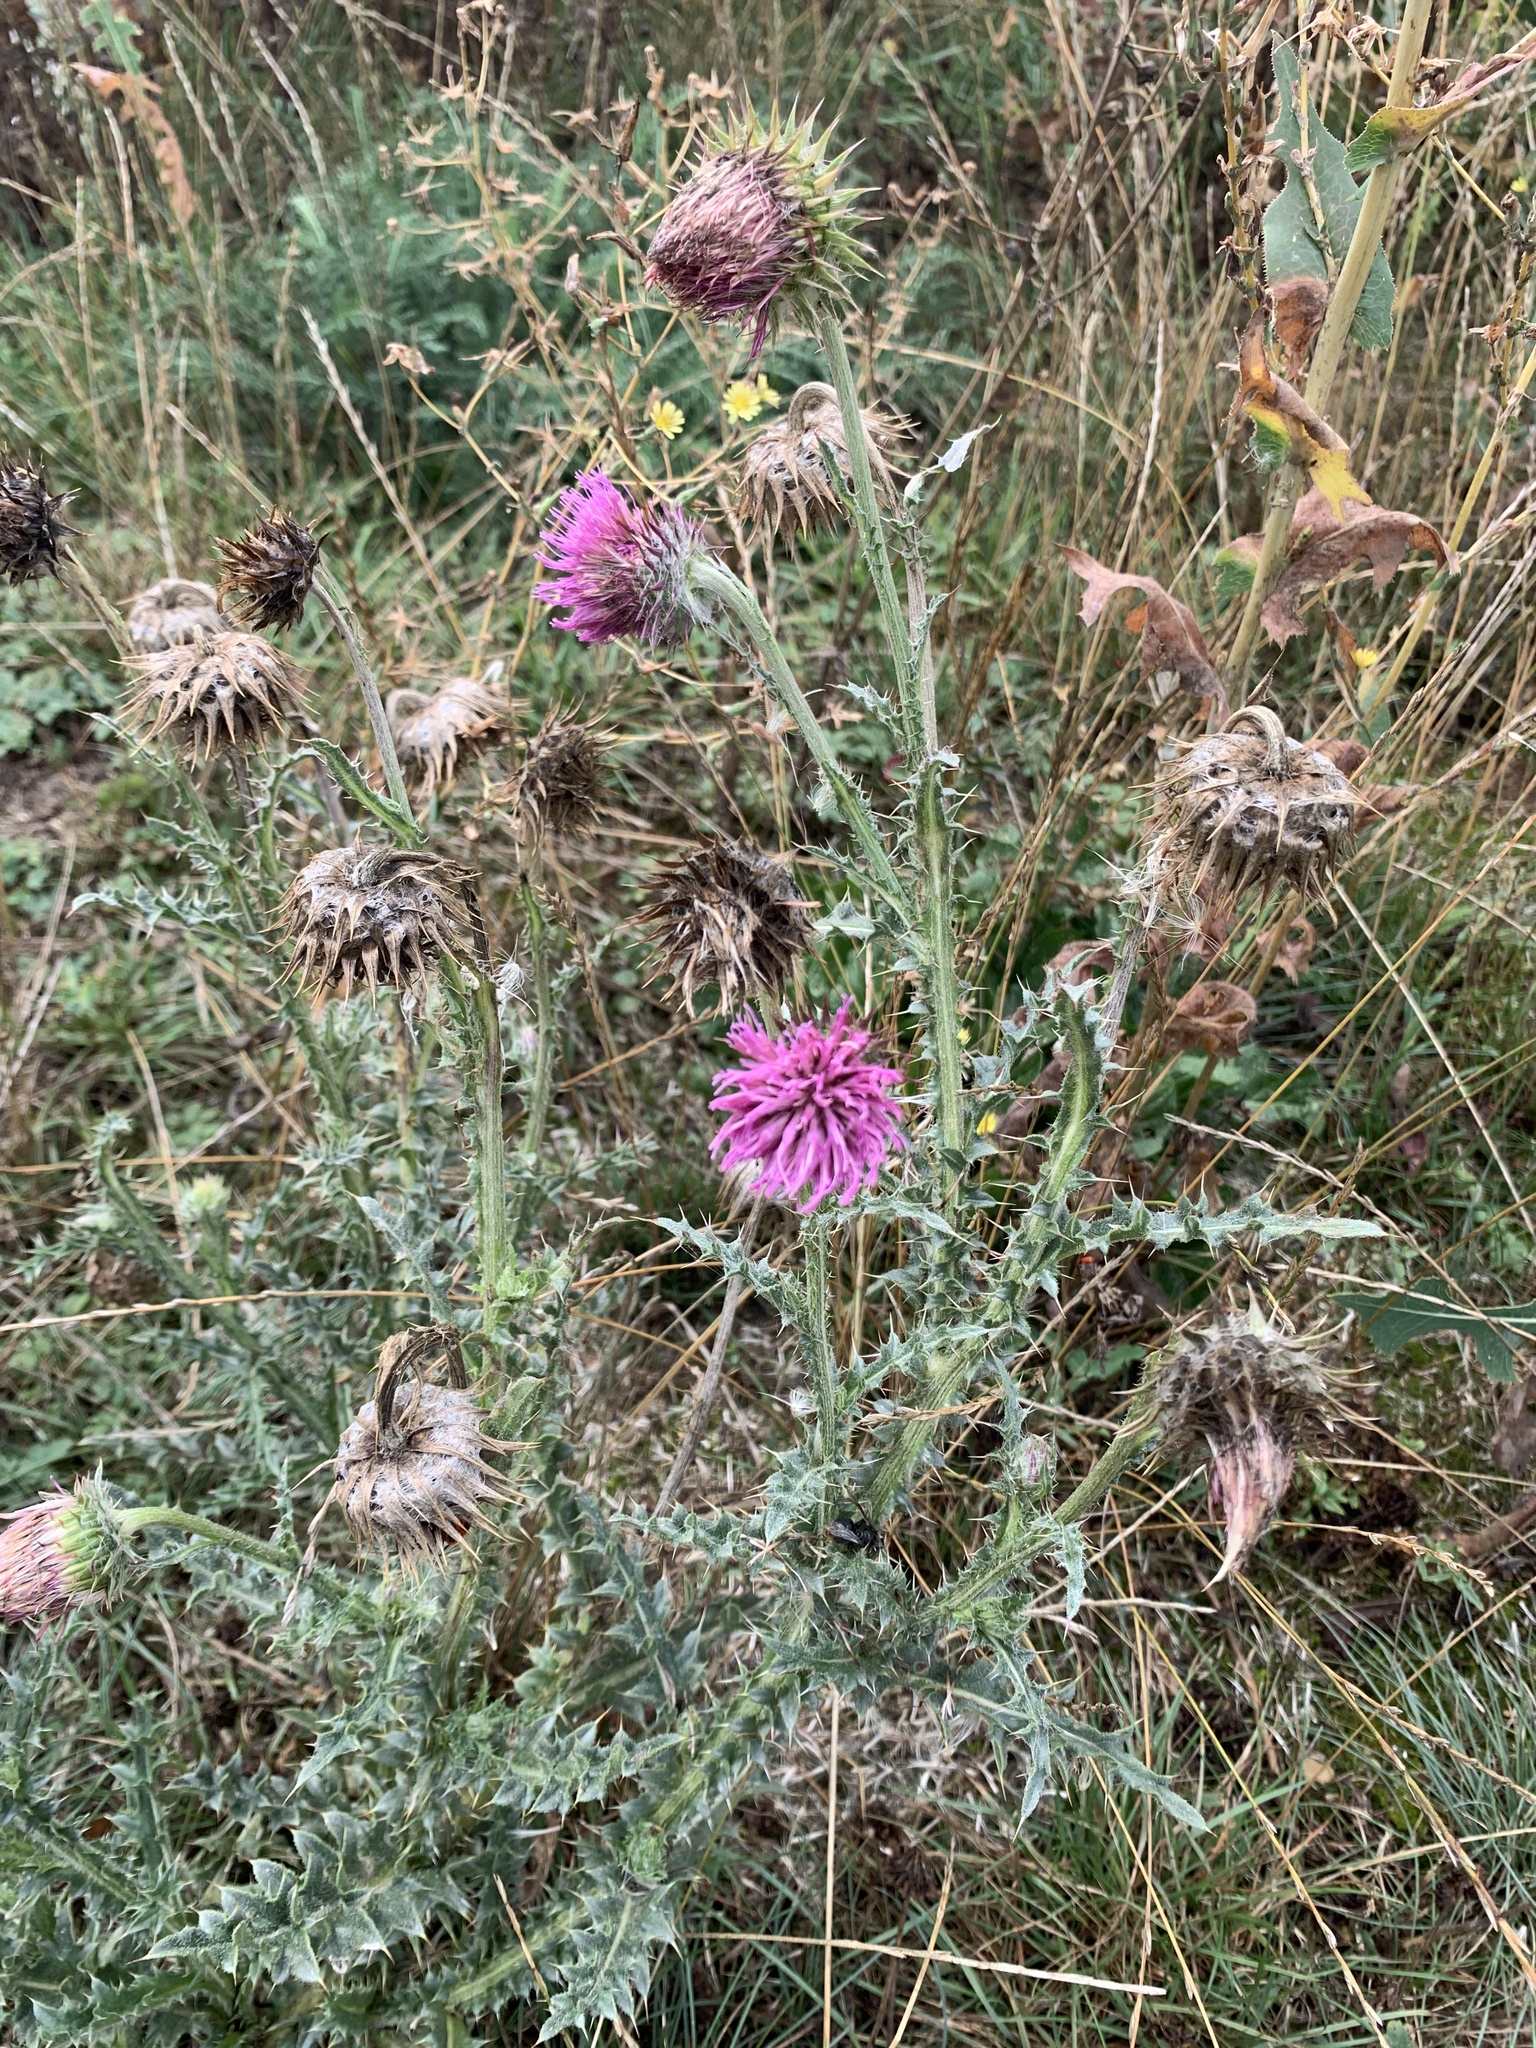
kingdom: Plantae
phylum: Tracheophyta
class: Magnoliopsida
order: Asterales
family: Asteraceae
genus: Carduus
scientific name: Carduus nutans
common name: Musk thistle
